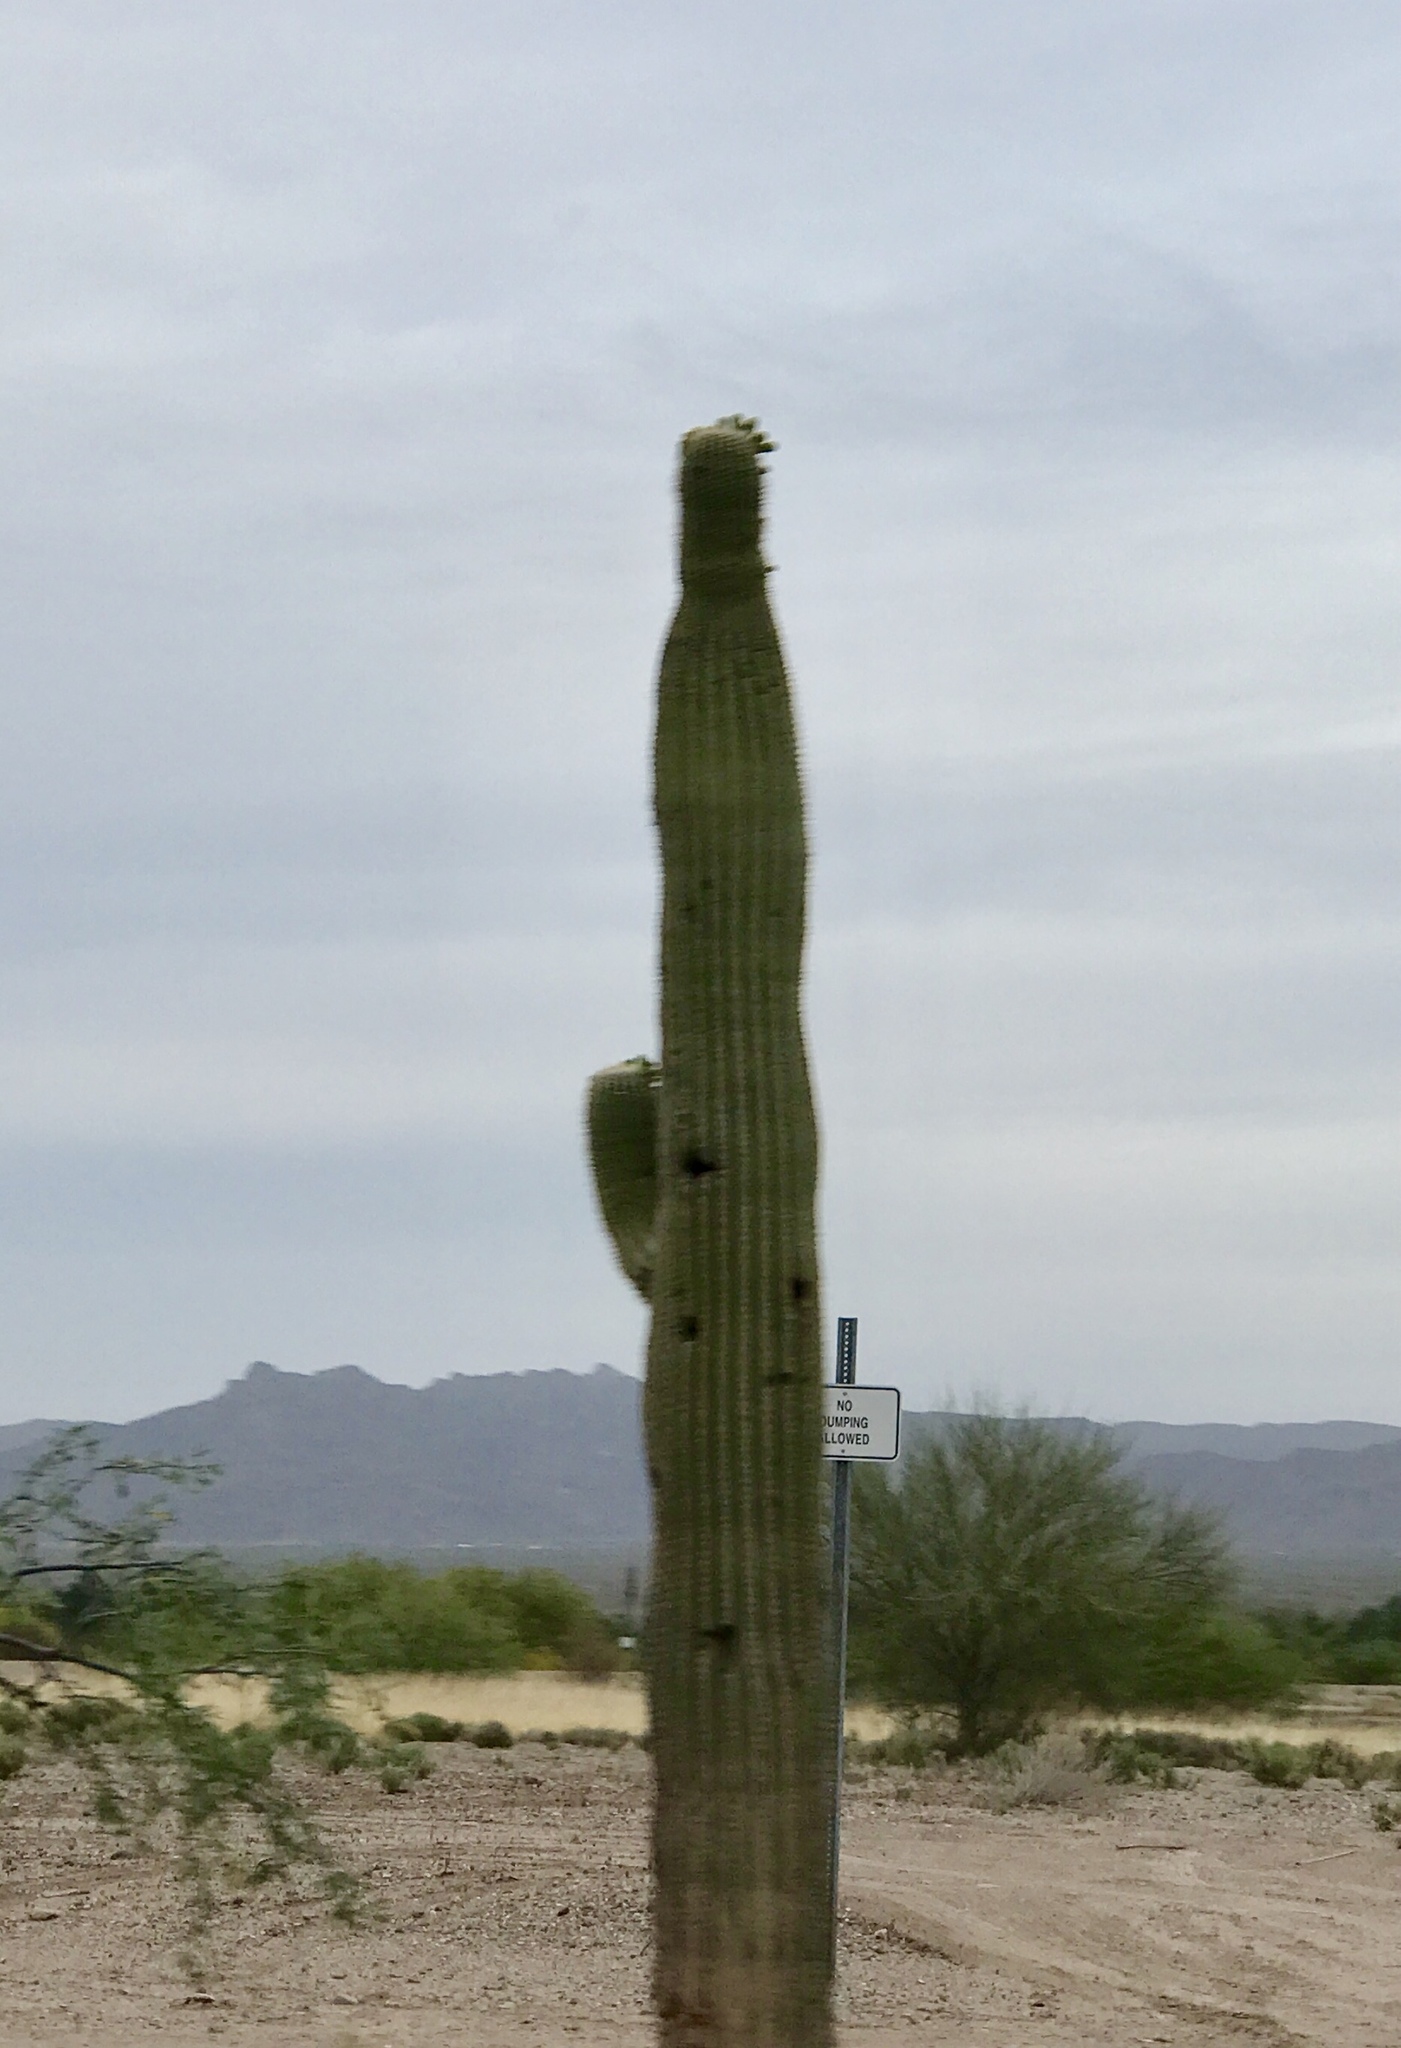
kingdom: Plantae
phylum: Tracheophyta
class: Magnoliopsida
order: Caryophyllales
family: Cactaceae
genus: Carnegiea
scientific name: Carnegiea gigantea
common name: Saguaro
